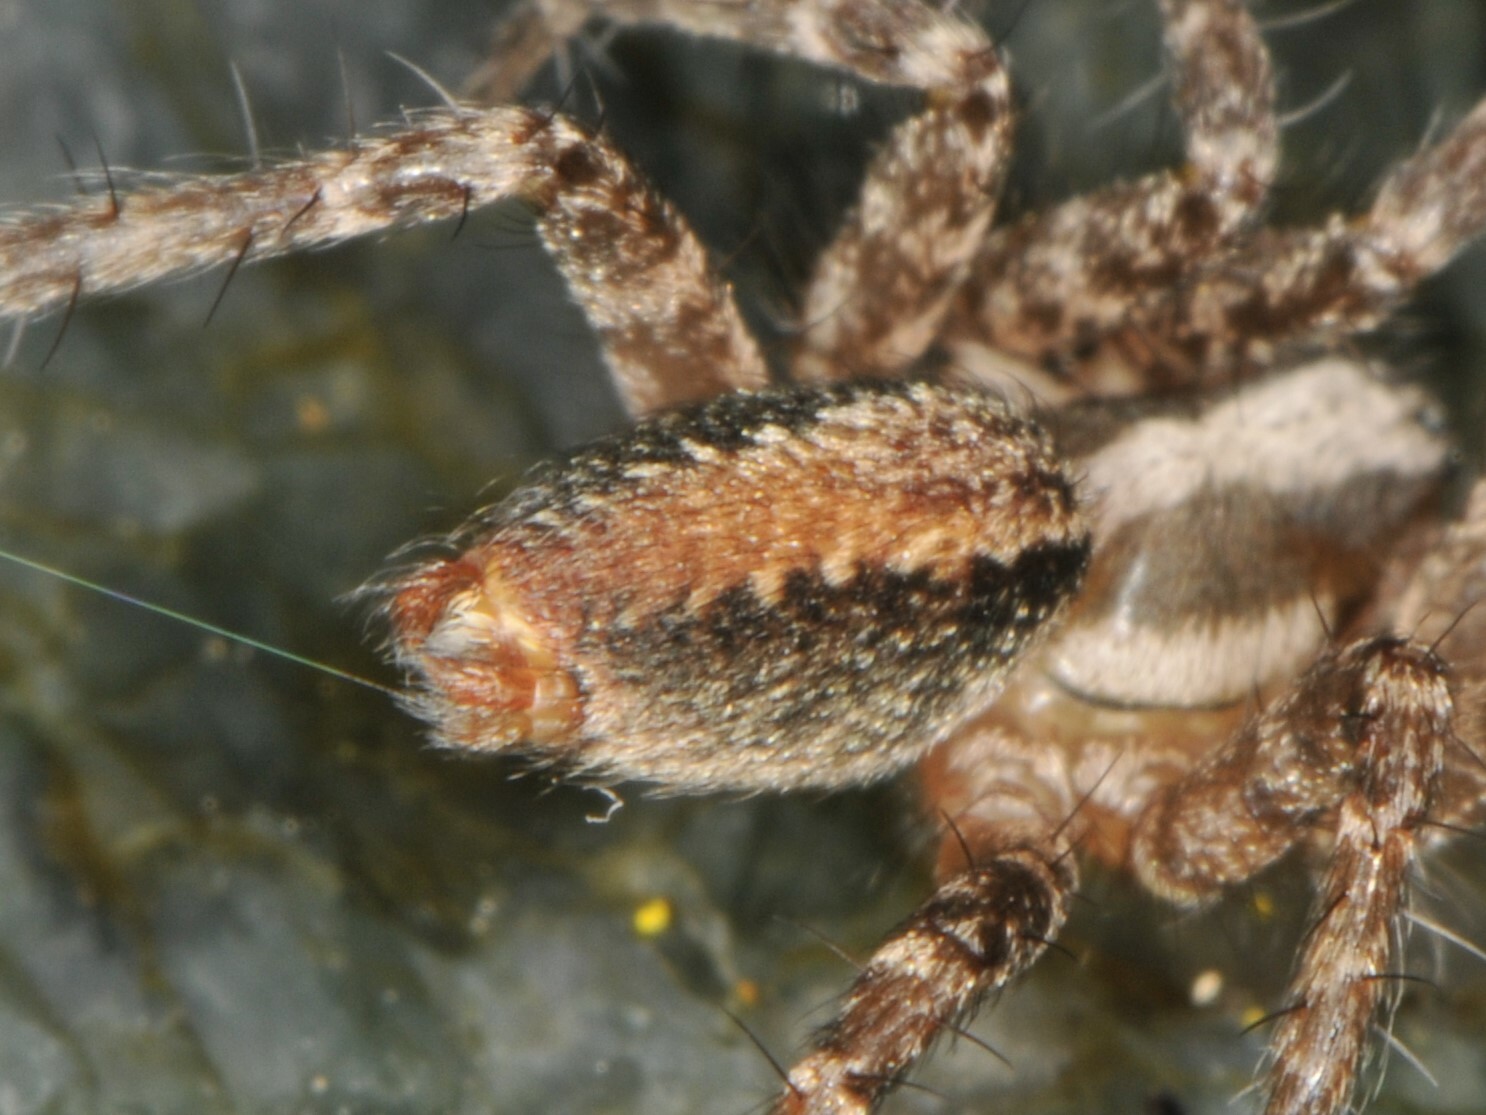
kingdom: Animalia
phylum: Arthropoda
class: Arachnida
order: Araneae
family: Agelenidae
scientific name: Agelenidae
